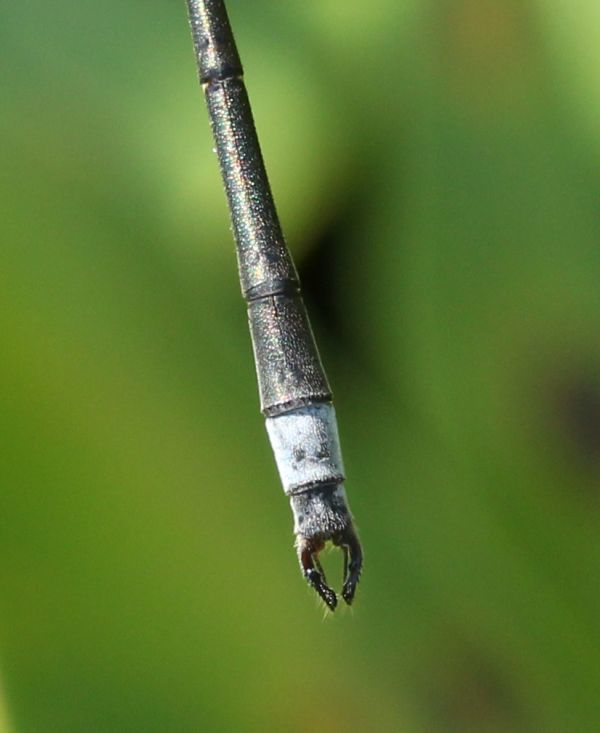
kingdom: Animalia
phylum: Arthropoda
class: Insecta
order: Odonata
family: Lestidae
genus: Lestes
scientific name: Lestes vigilax
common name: Swamp spreadwing
